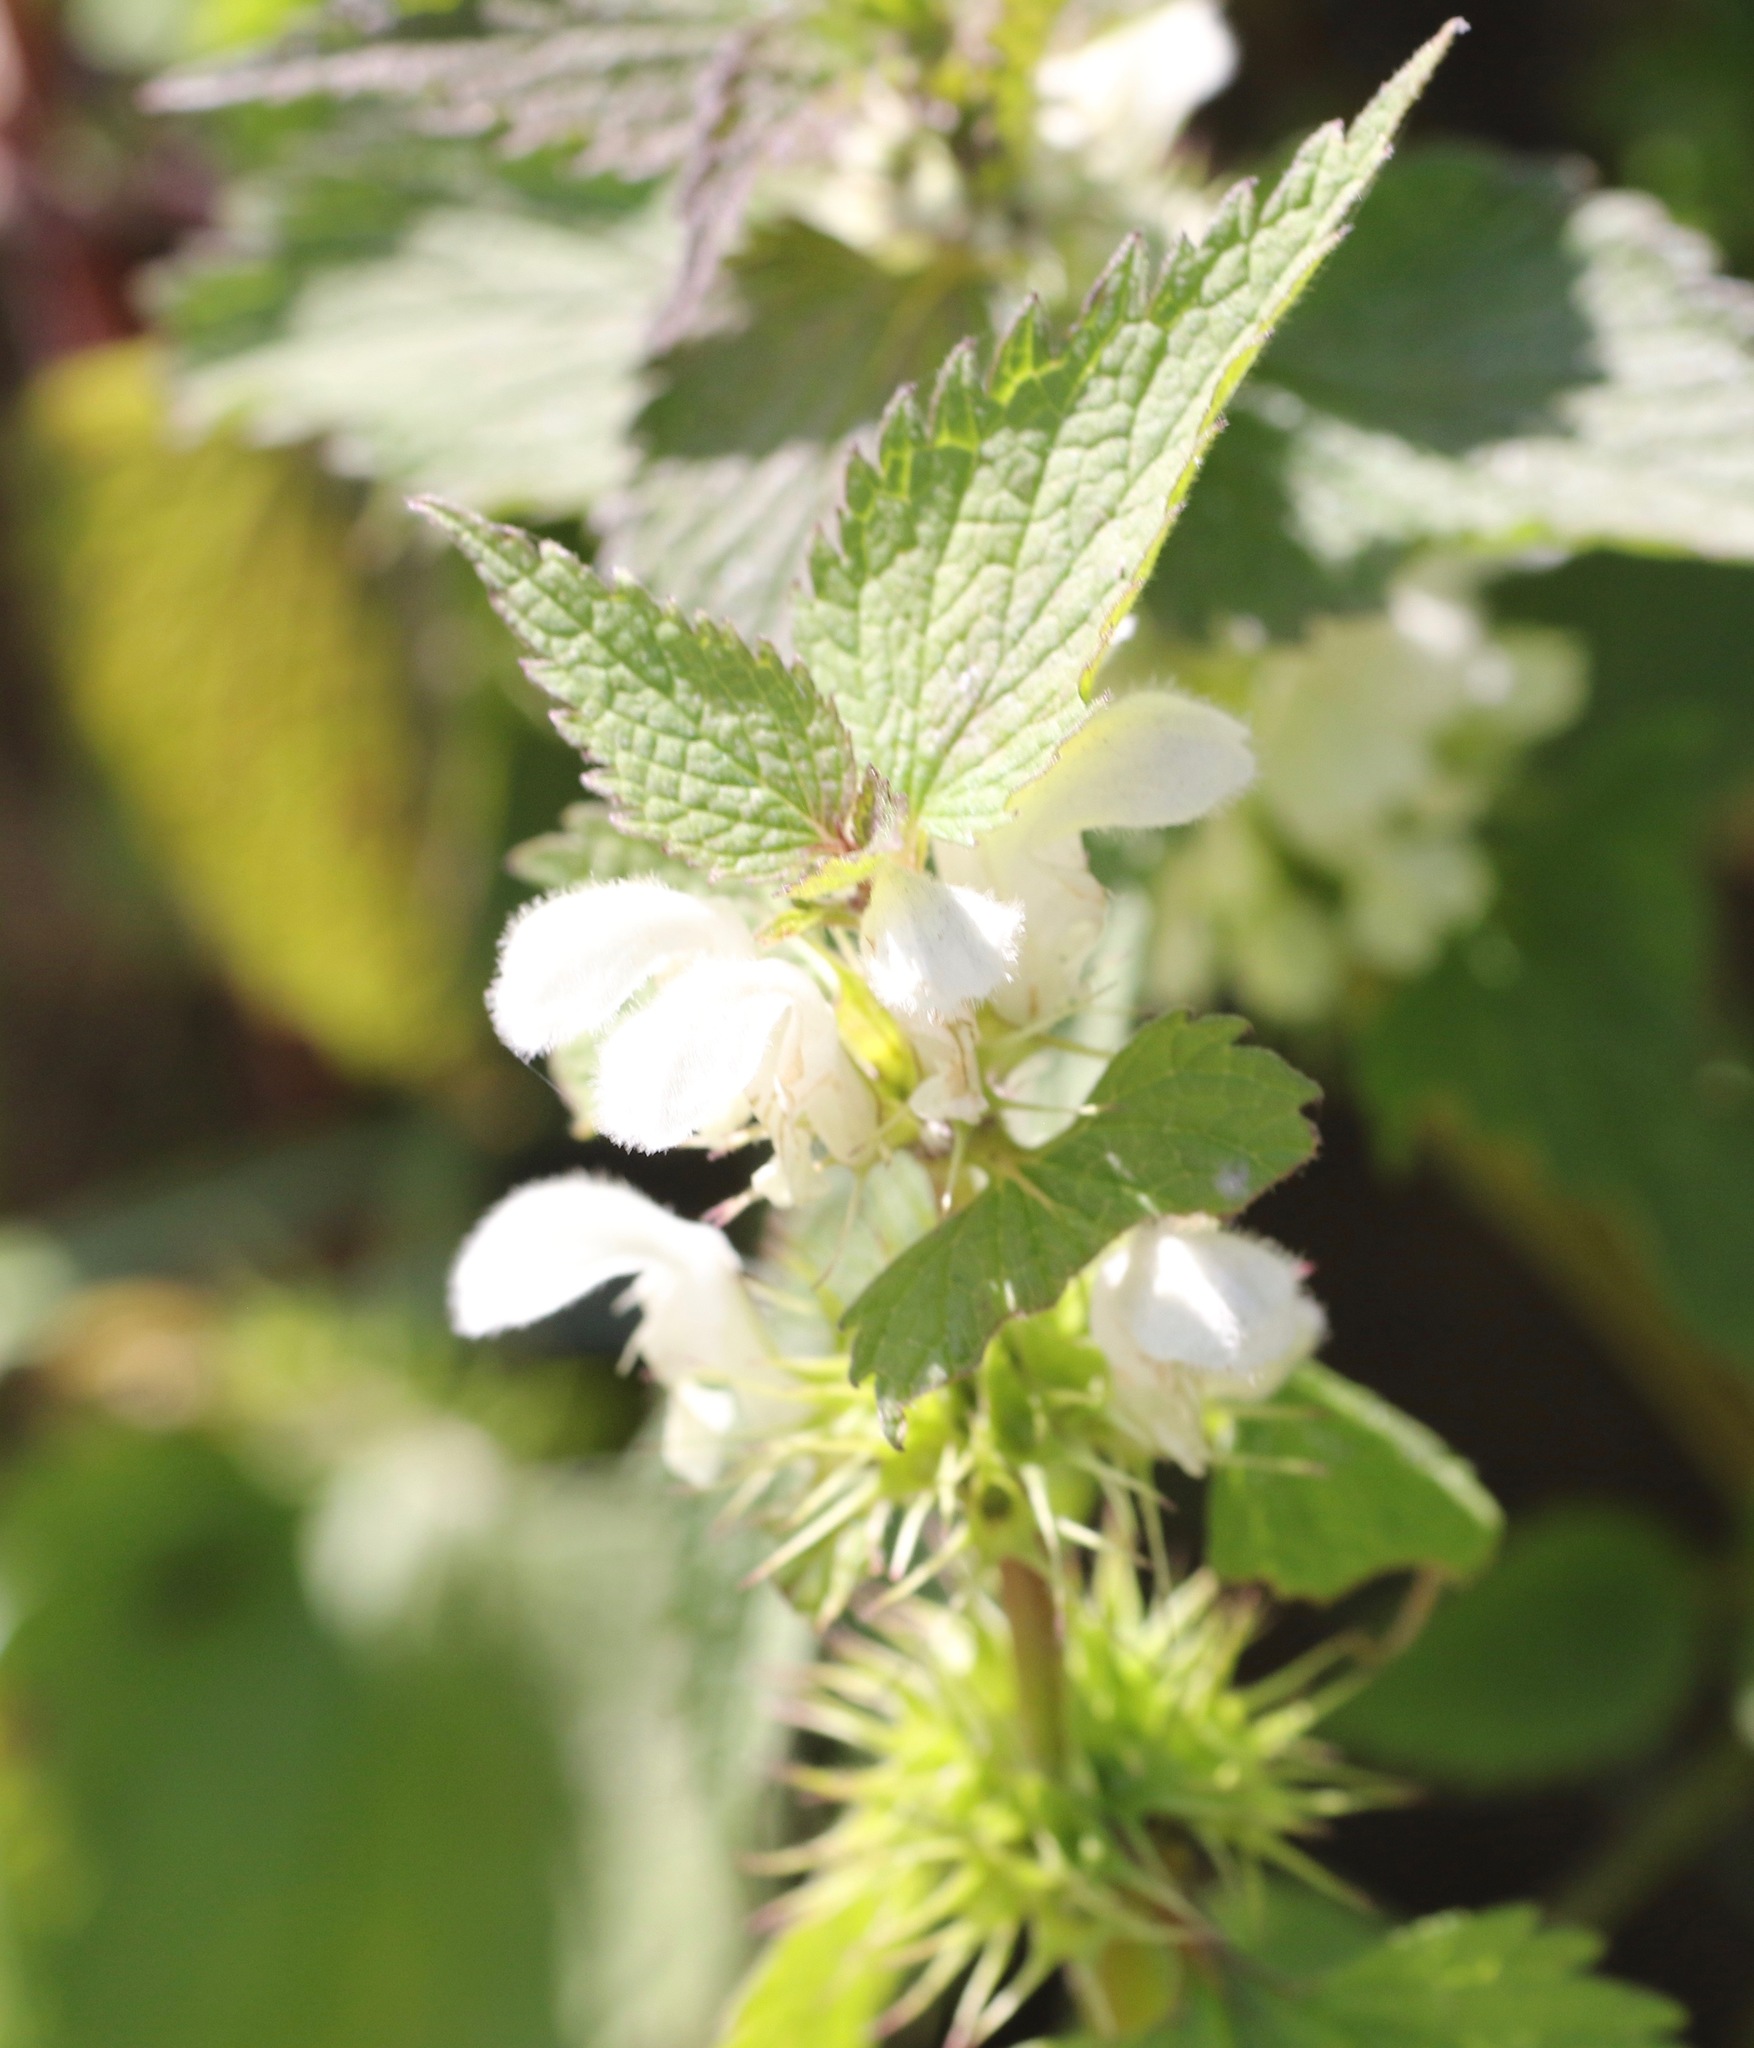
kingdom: Plantae
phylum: Tracheophyta
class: Magnoliopsida
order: Lamiales
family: Lamiaceae
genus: Lamium
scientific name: Lamium album
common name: White dead-nettle
